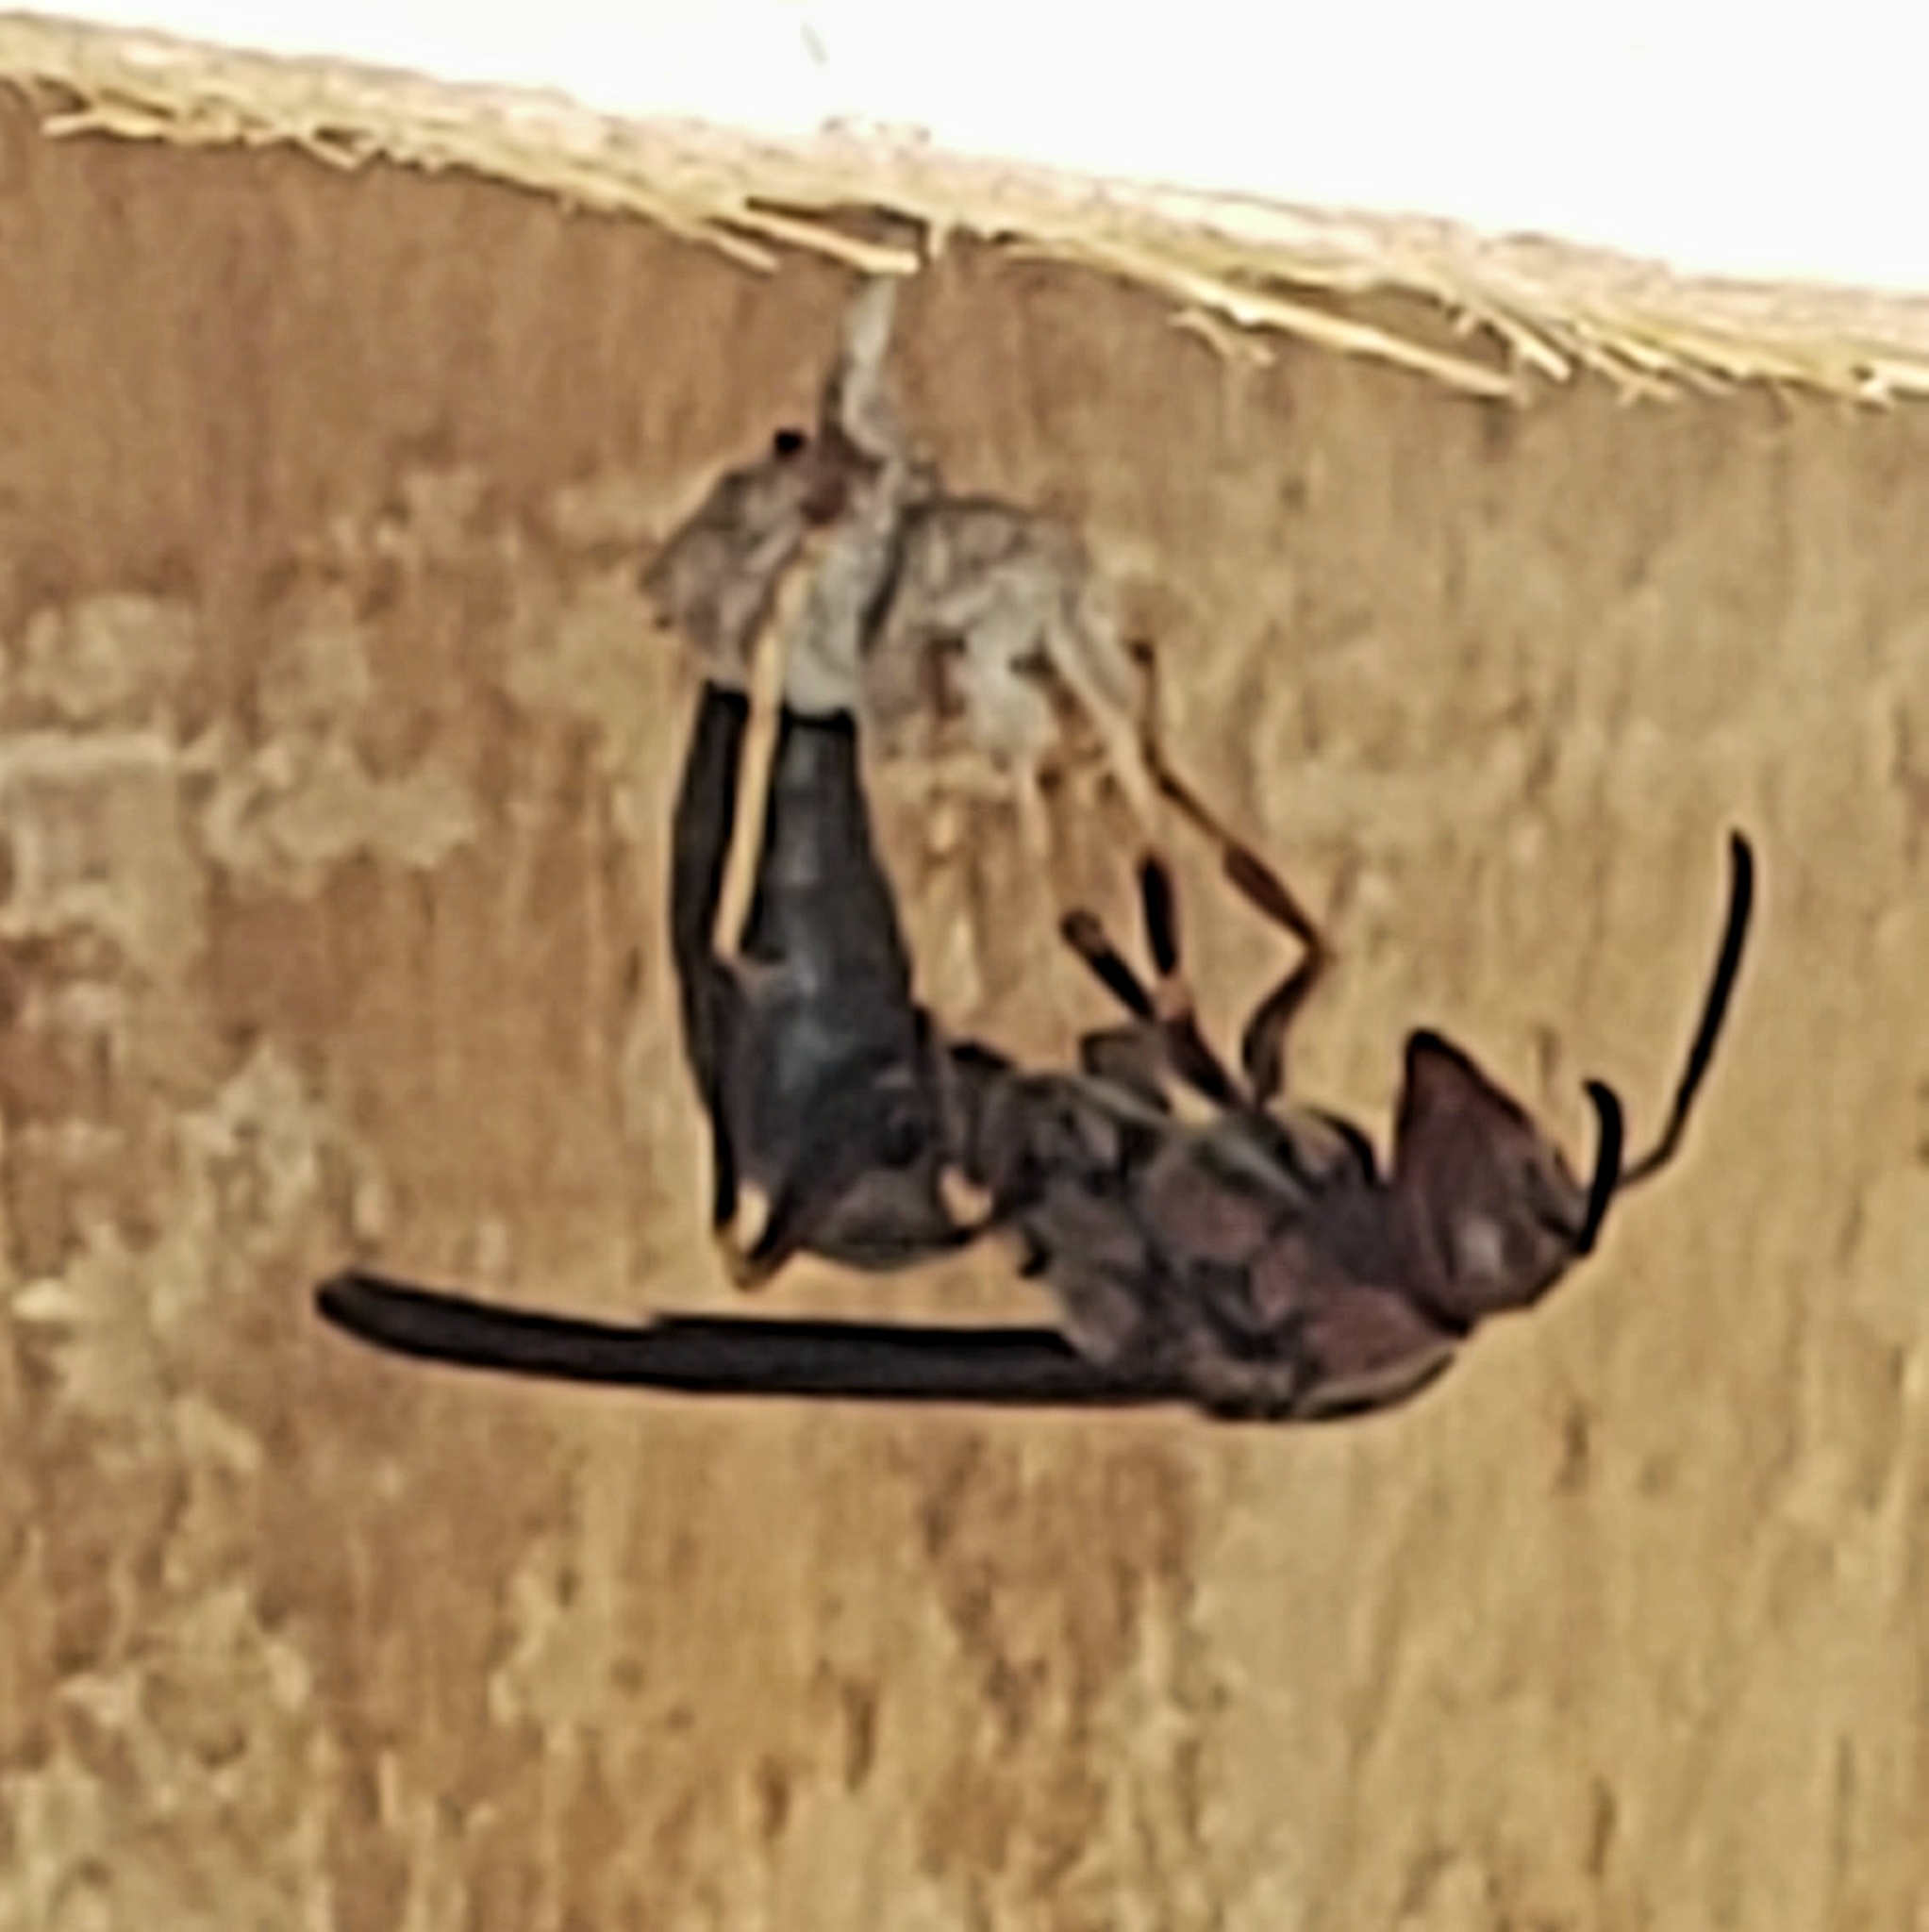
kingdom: Animalia
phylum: Arthropoda
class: Insecta
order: Hymenoptera
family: Eumenidae
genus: Polistes
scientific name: Polistes metricus
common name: Metric paper wasp
